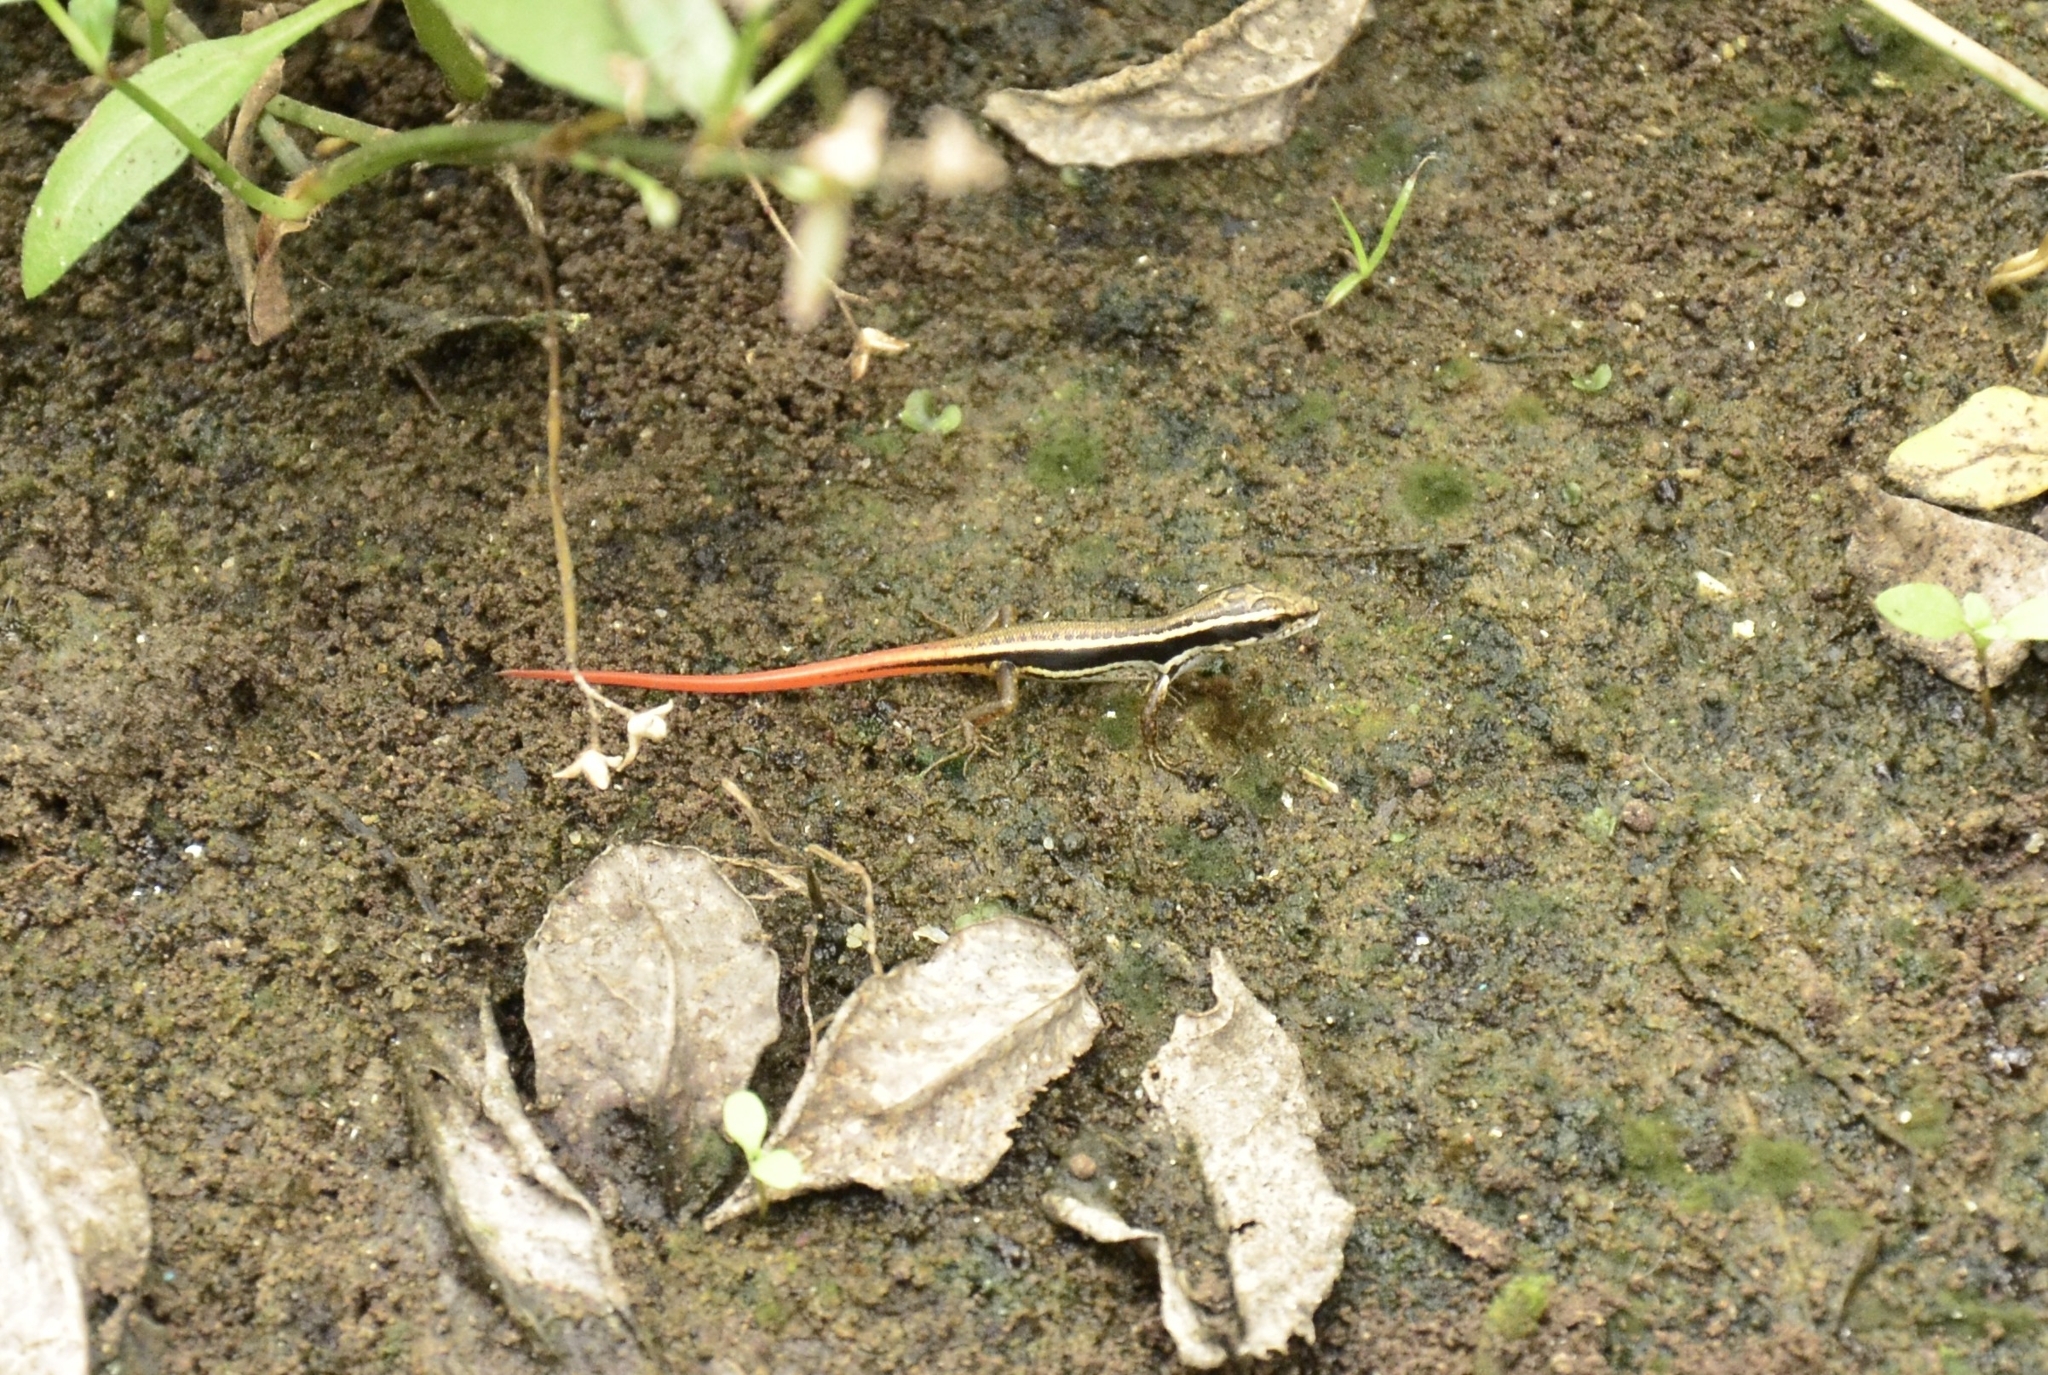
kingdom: Animalia
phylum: Chordata
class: Squamata
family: Scincidae
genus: Sphenomorphus
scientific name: Sphenomorphus dussumieri
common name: Dussumier's forest skink
